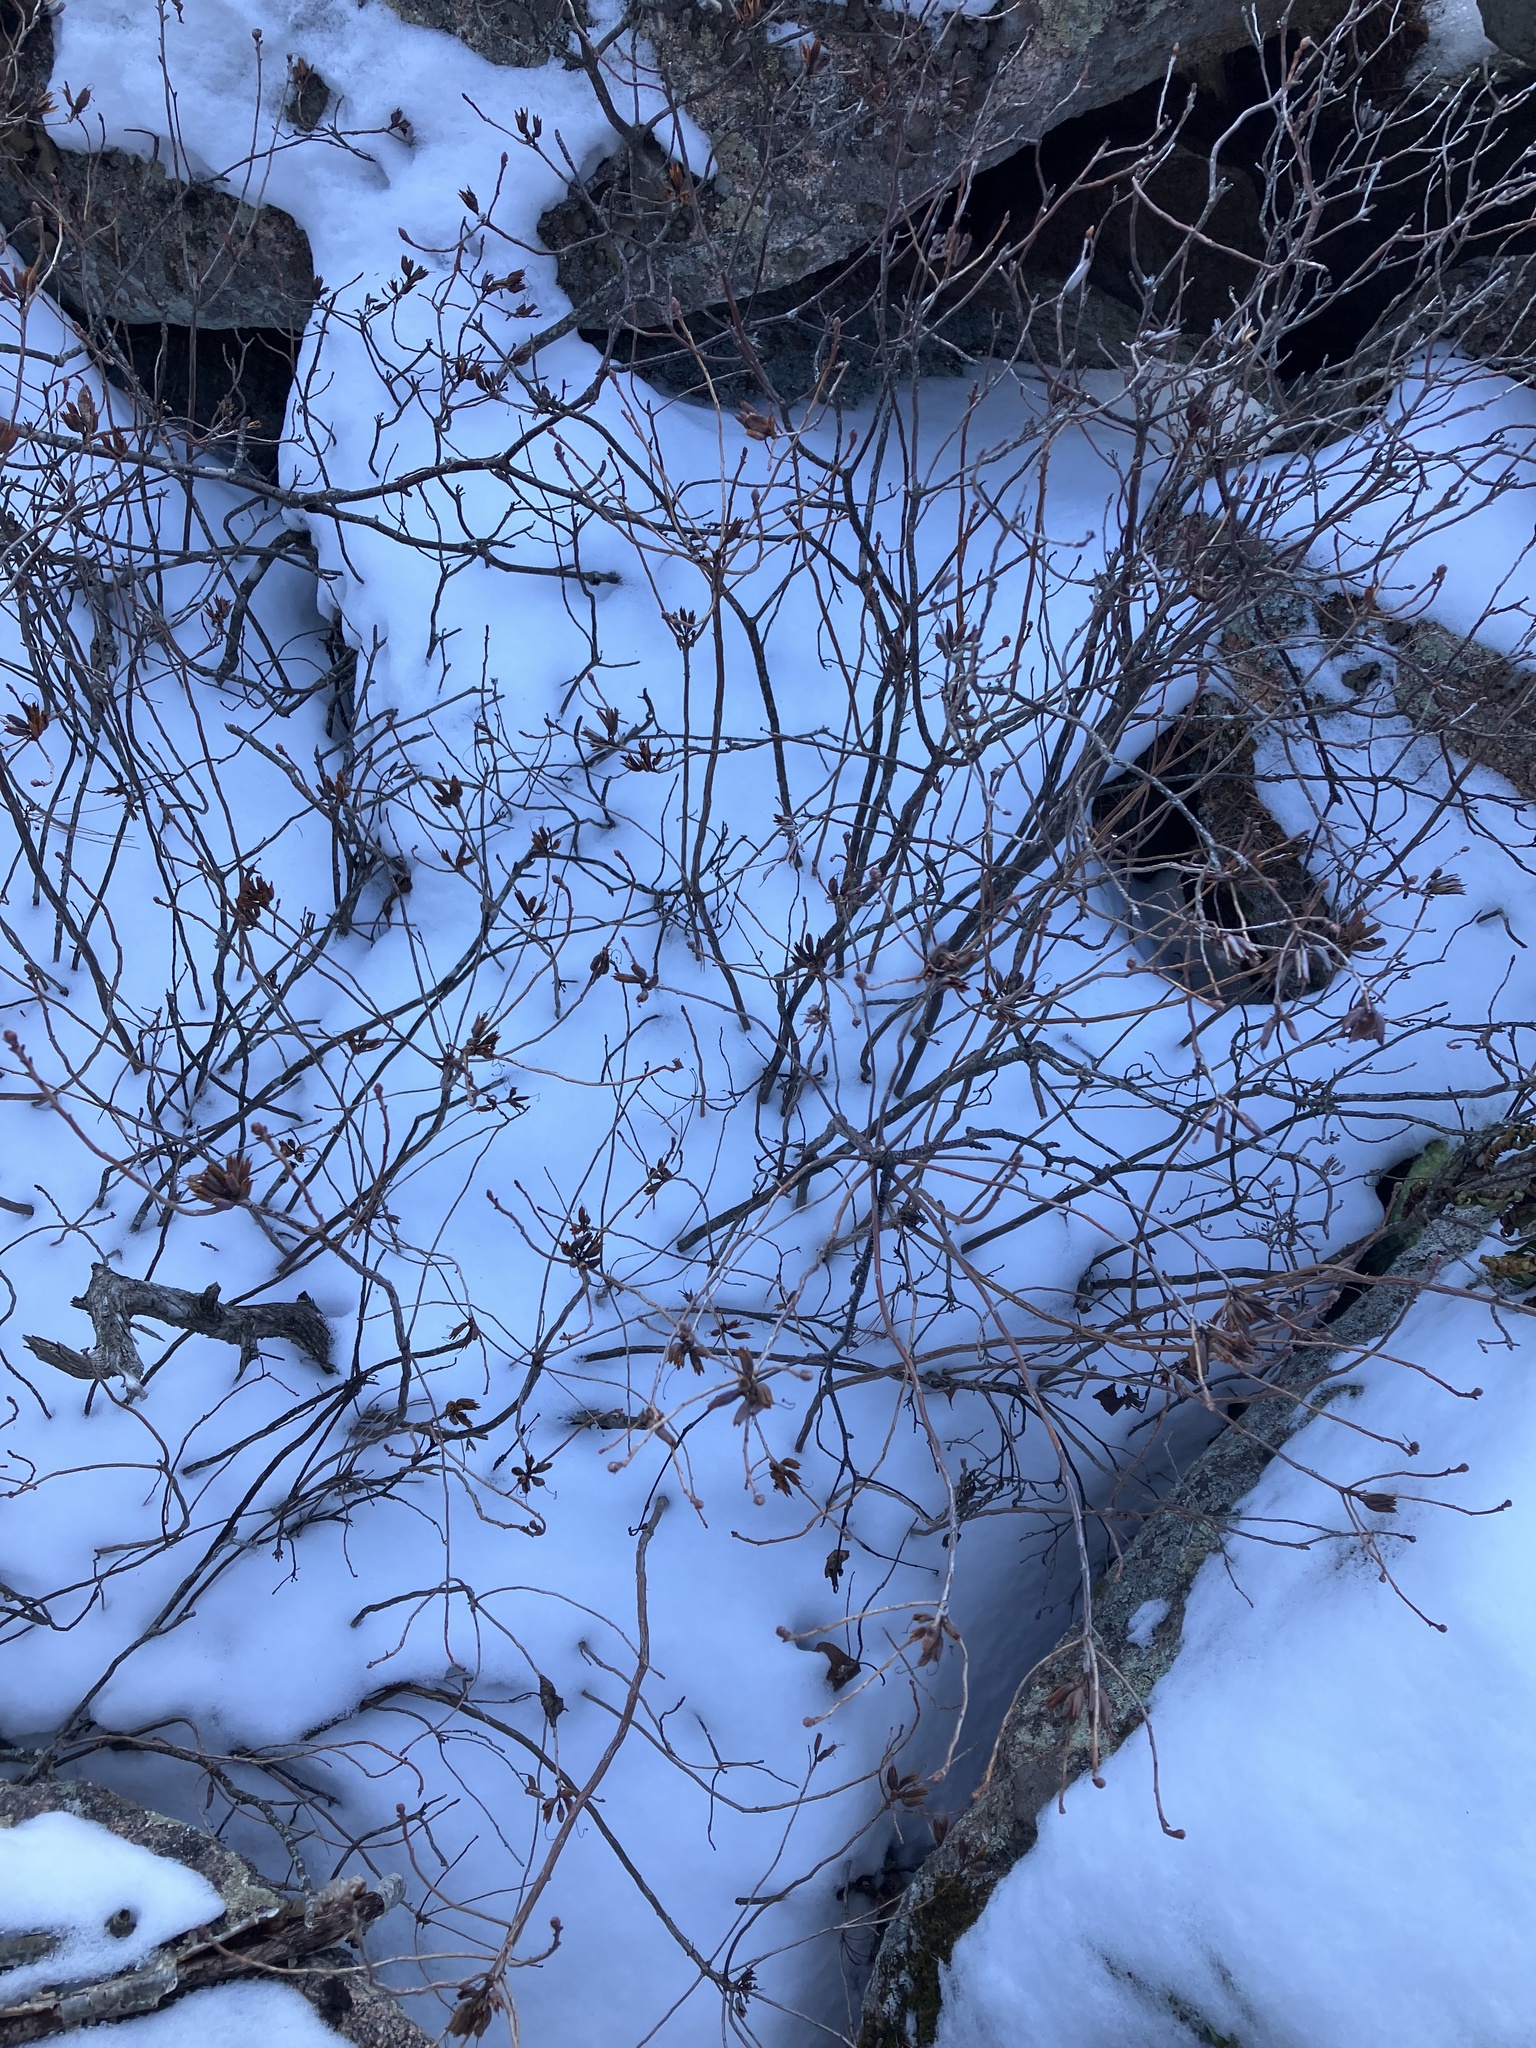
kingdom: Plantae
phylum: Tracheophyta
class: Magnoliopsida
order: Ericales
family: Ericaceae
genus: Rhododendron
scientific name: Rhododendron canadense
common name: Rhodora
